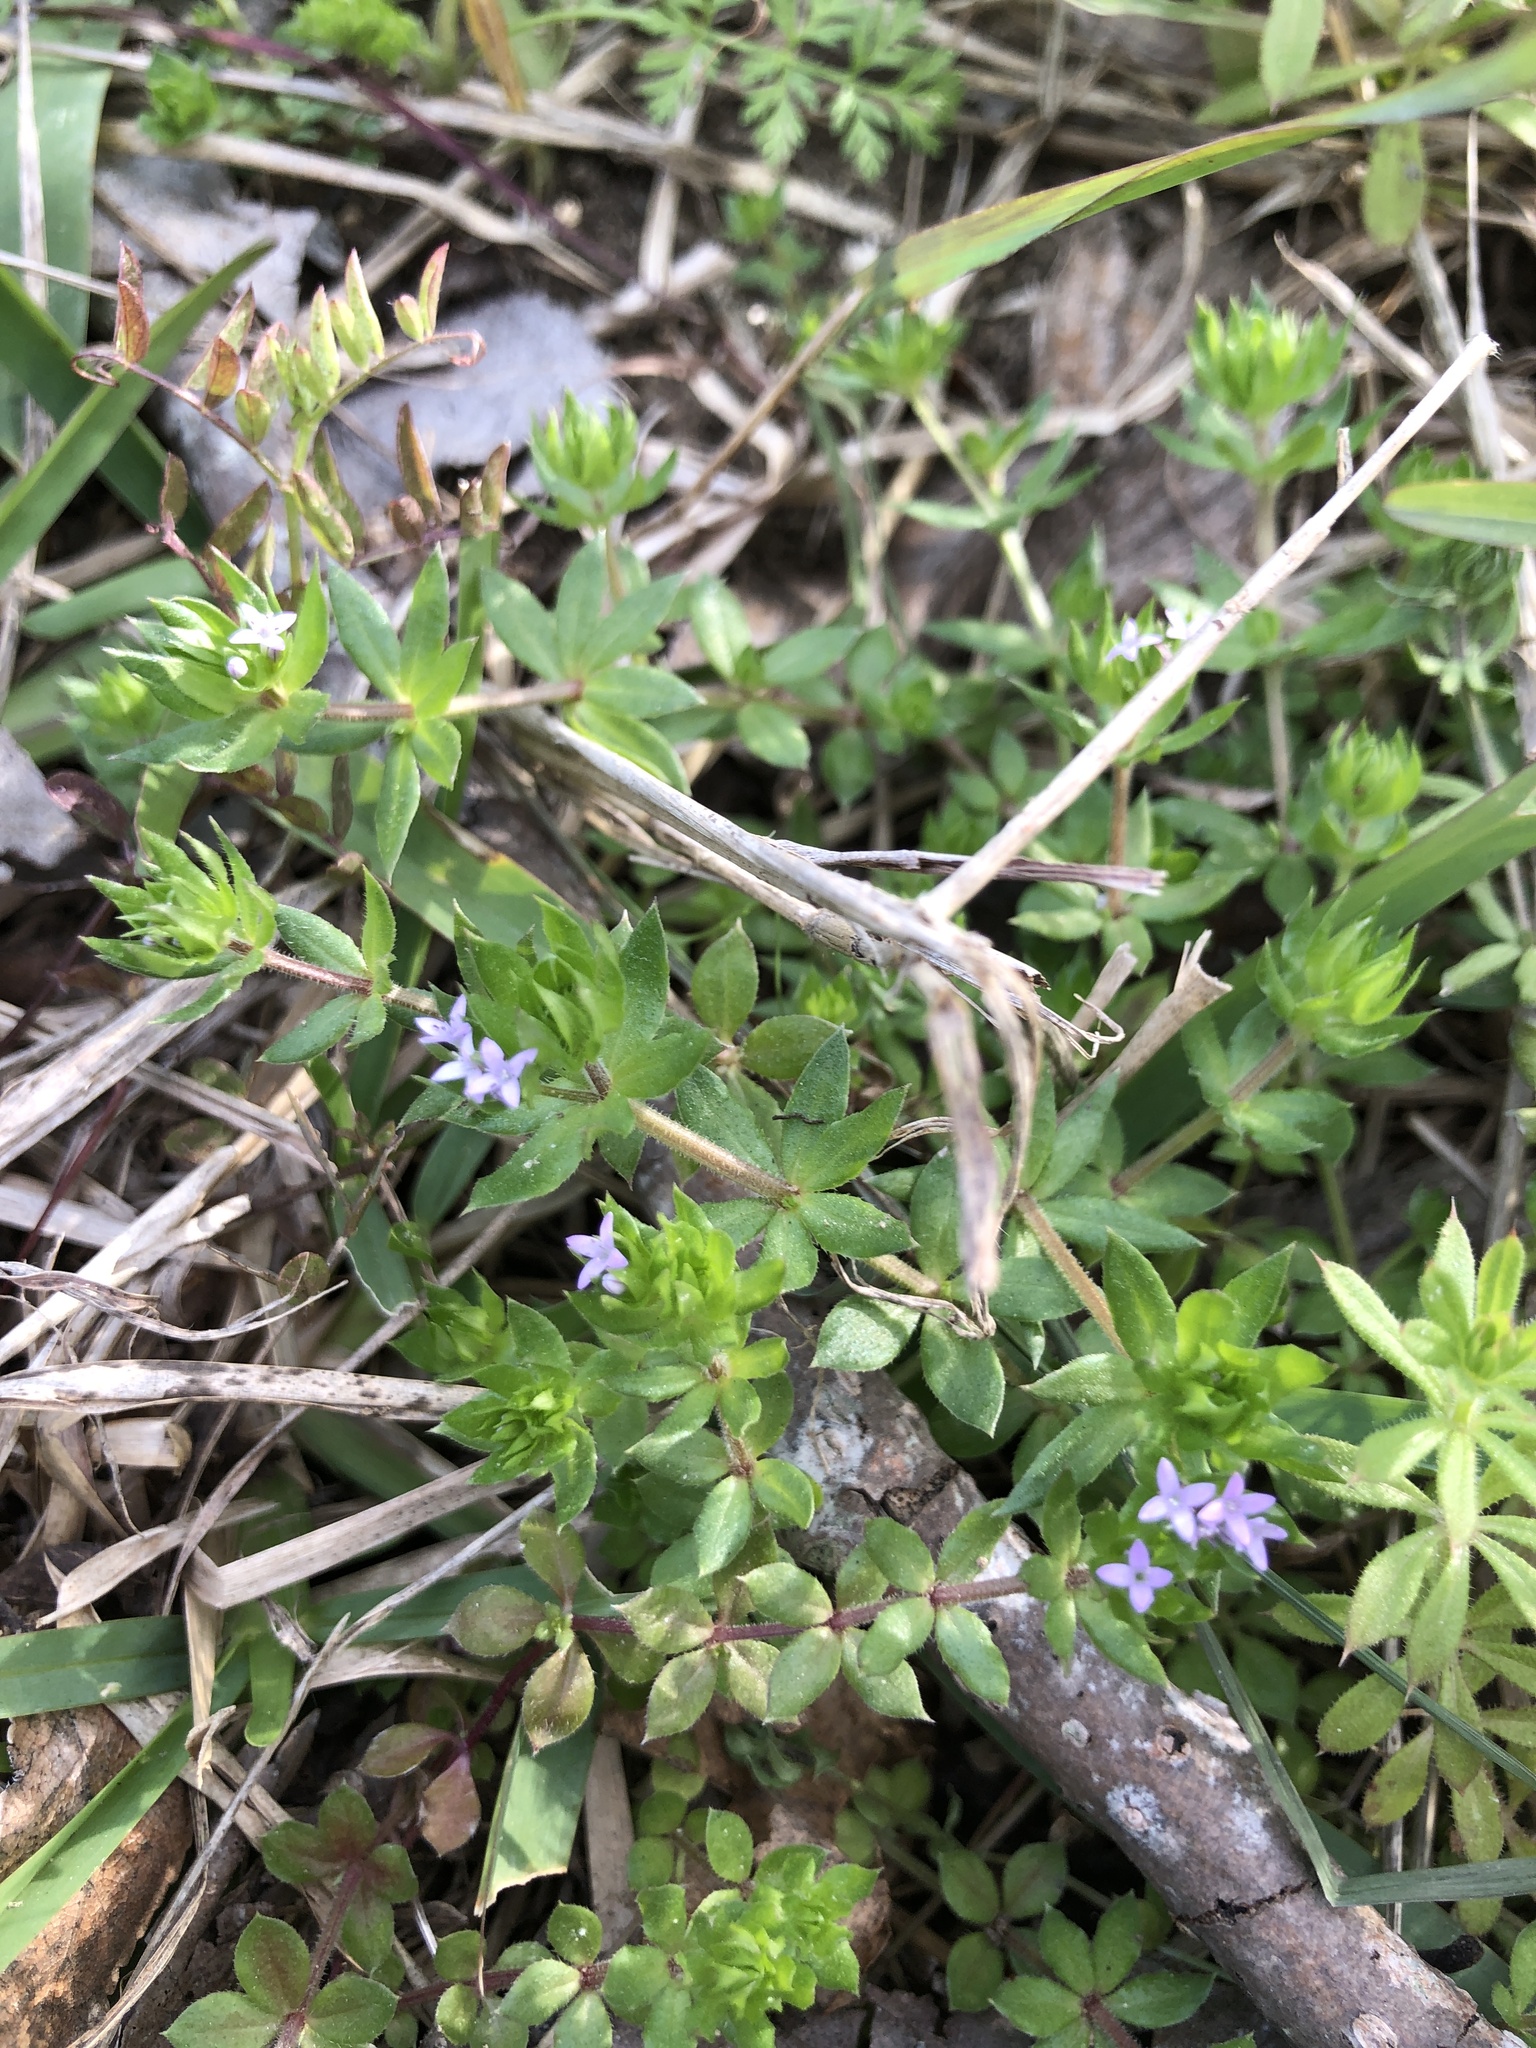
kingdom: Plantae
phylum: Tracheophyta
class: Magnoliopsida
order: Gentianales
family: Rubiaceae
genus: Sherardia
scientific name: Sherardia arvensis
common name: Field madder
